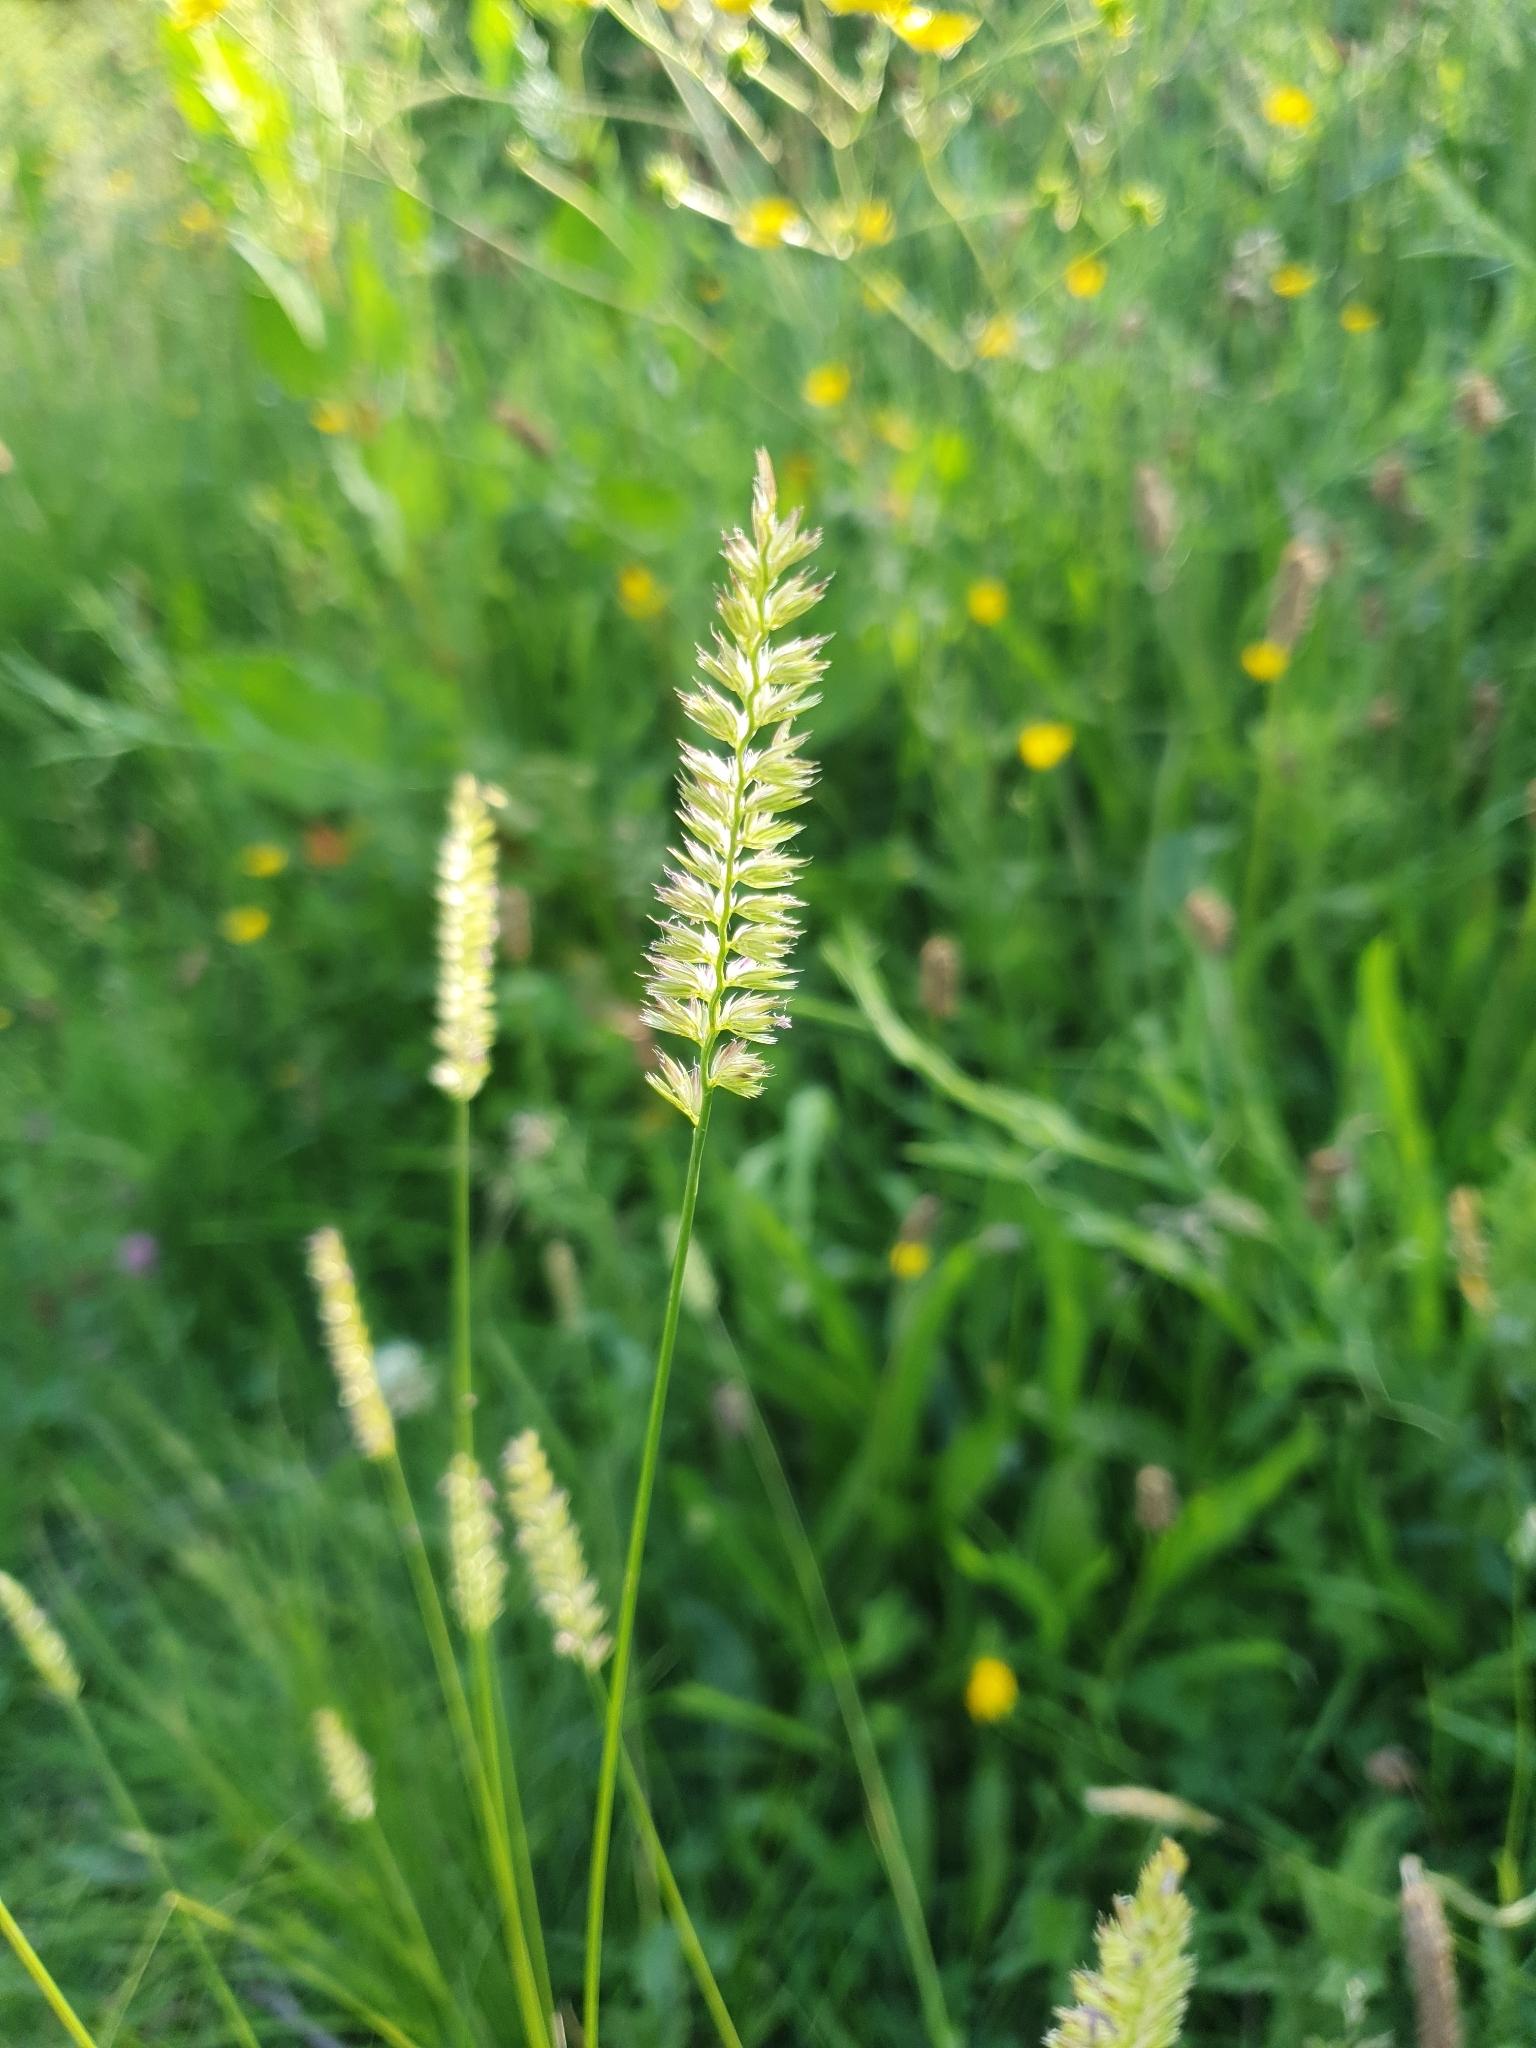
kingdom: Plantae
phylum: Tracheophyta
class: Liliopsida
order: Poales
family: Poaceae
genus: Cynosurus
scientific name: Cynosurus cristatus
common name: Crested dog's-tail
